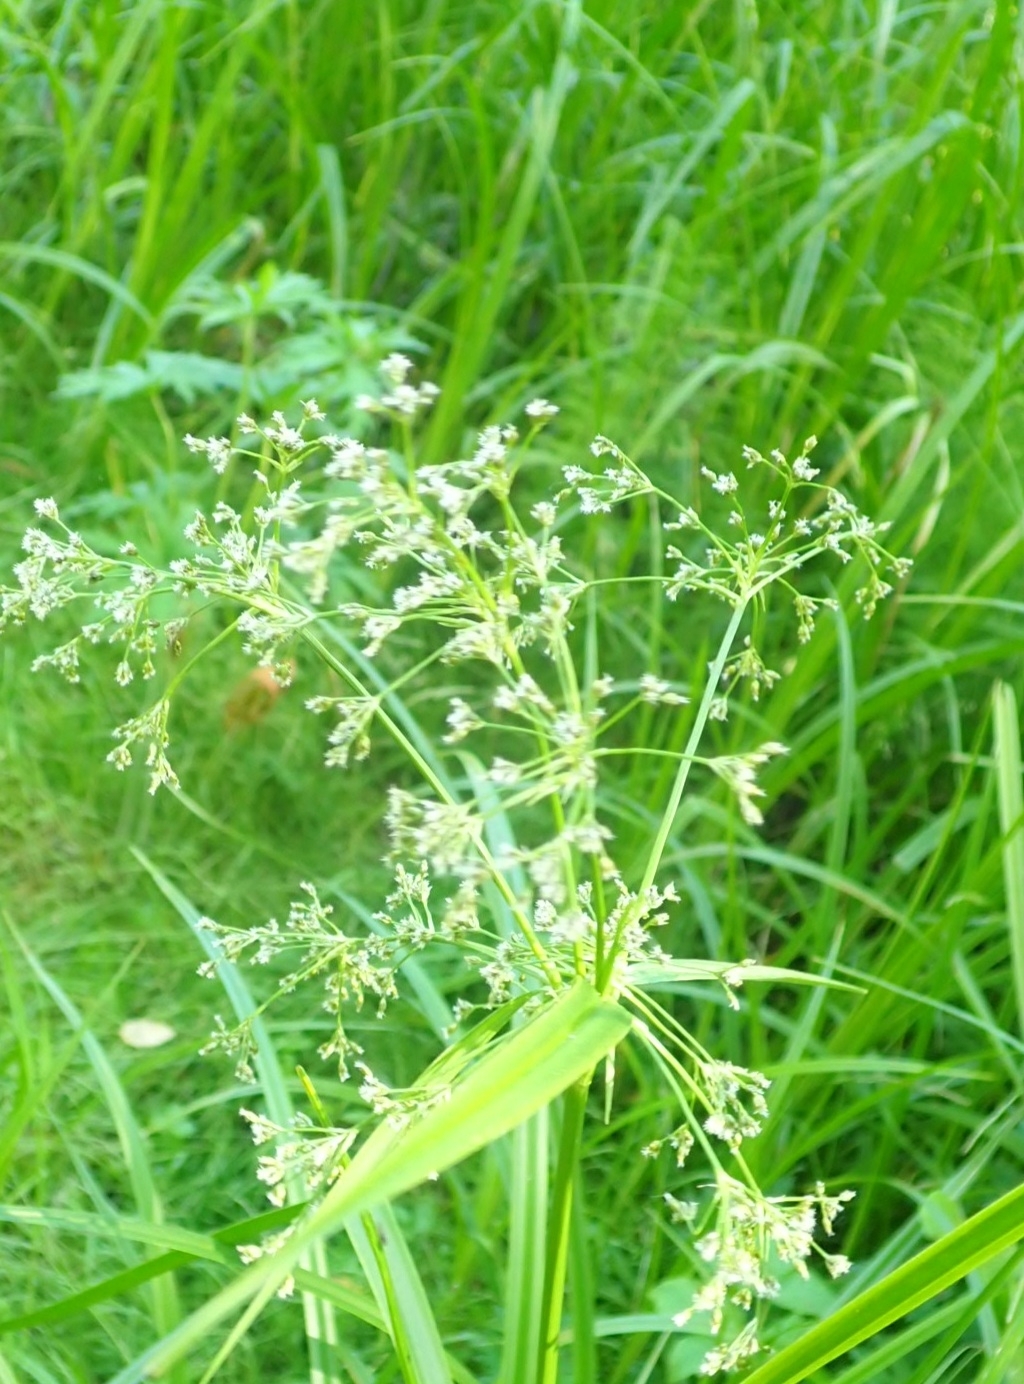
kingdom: Plantae
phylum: Tracheophyta
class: Liliopsida
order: Poales
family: Cyperaceae
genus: Scirpus
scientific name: Scirpus sylvaticus
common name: Wood club-rush
